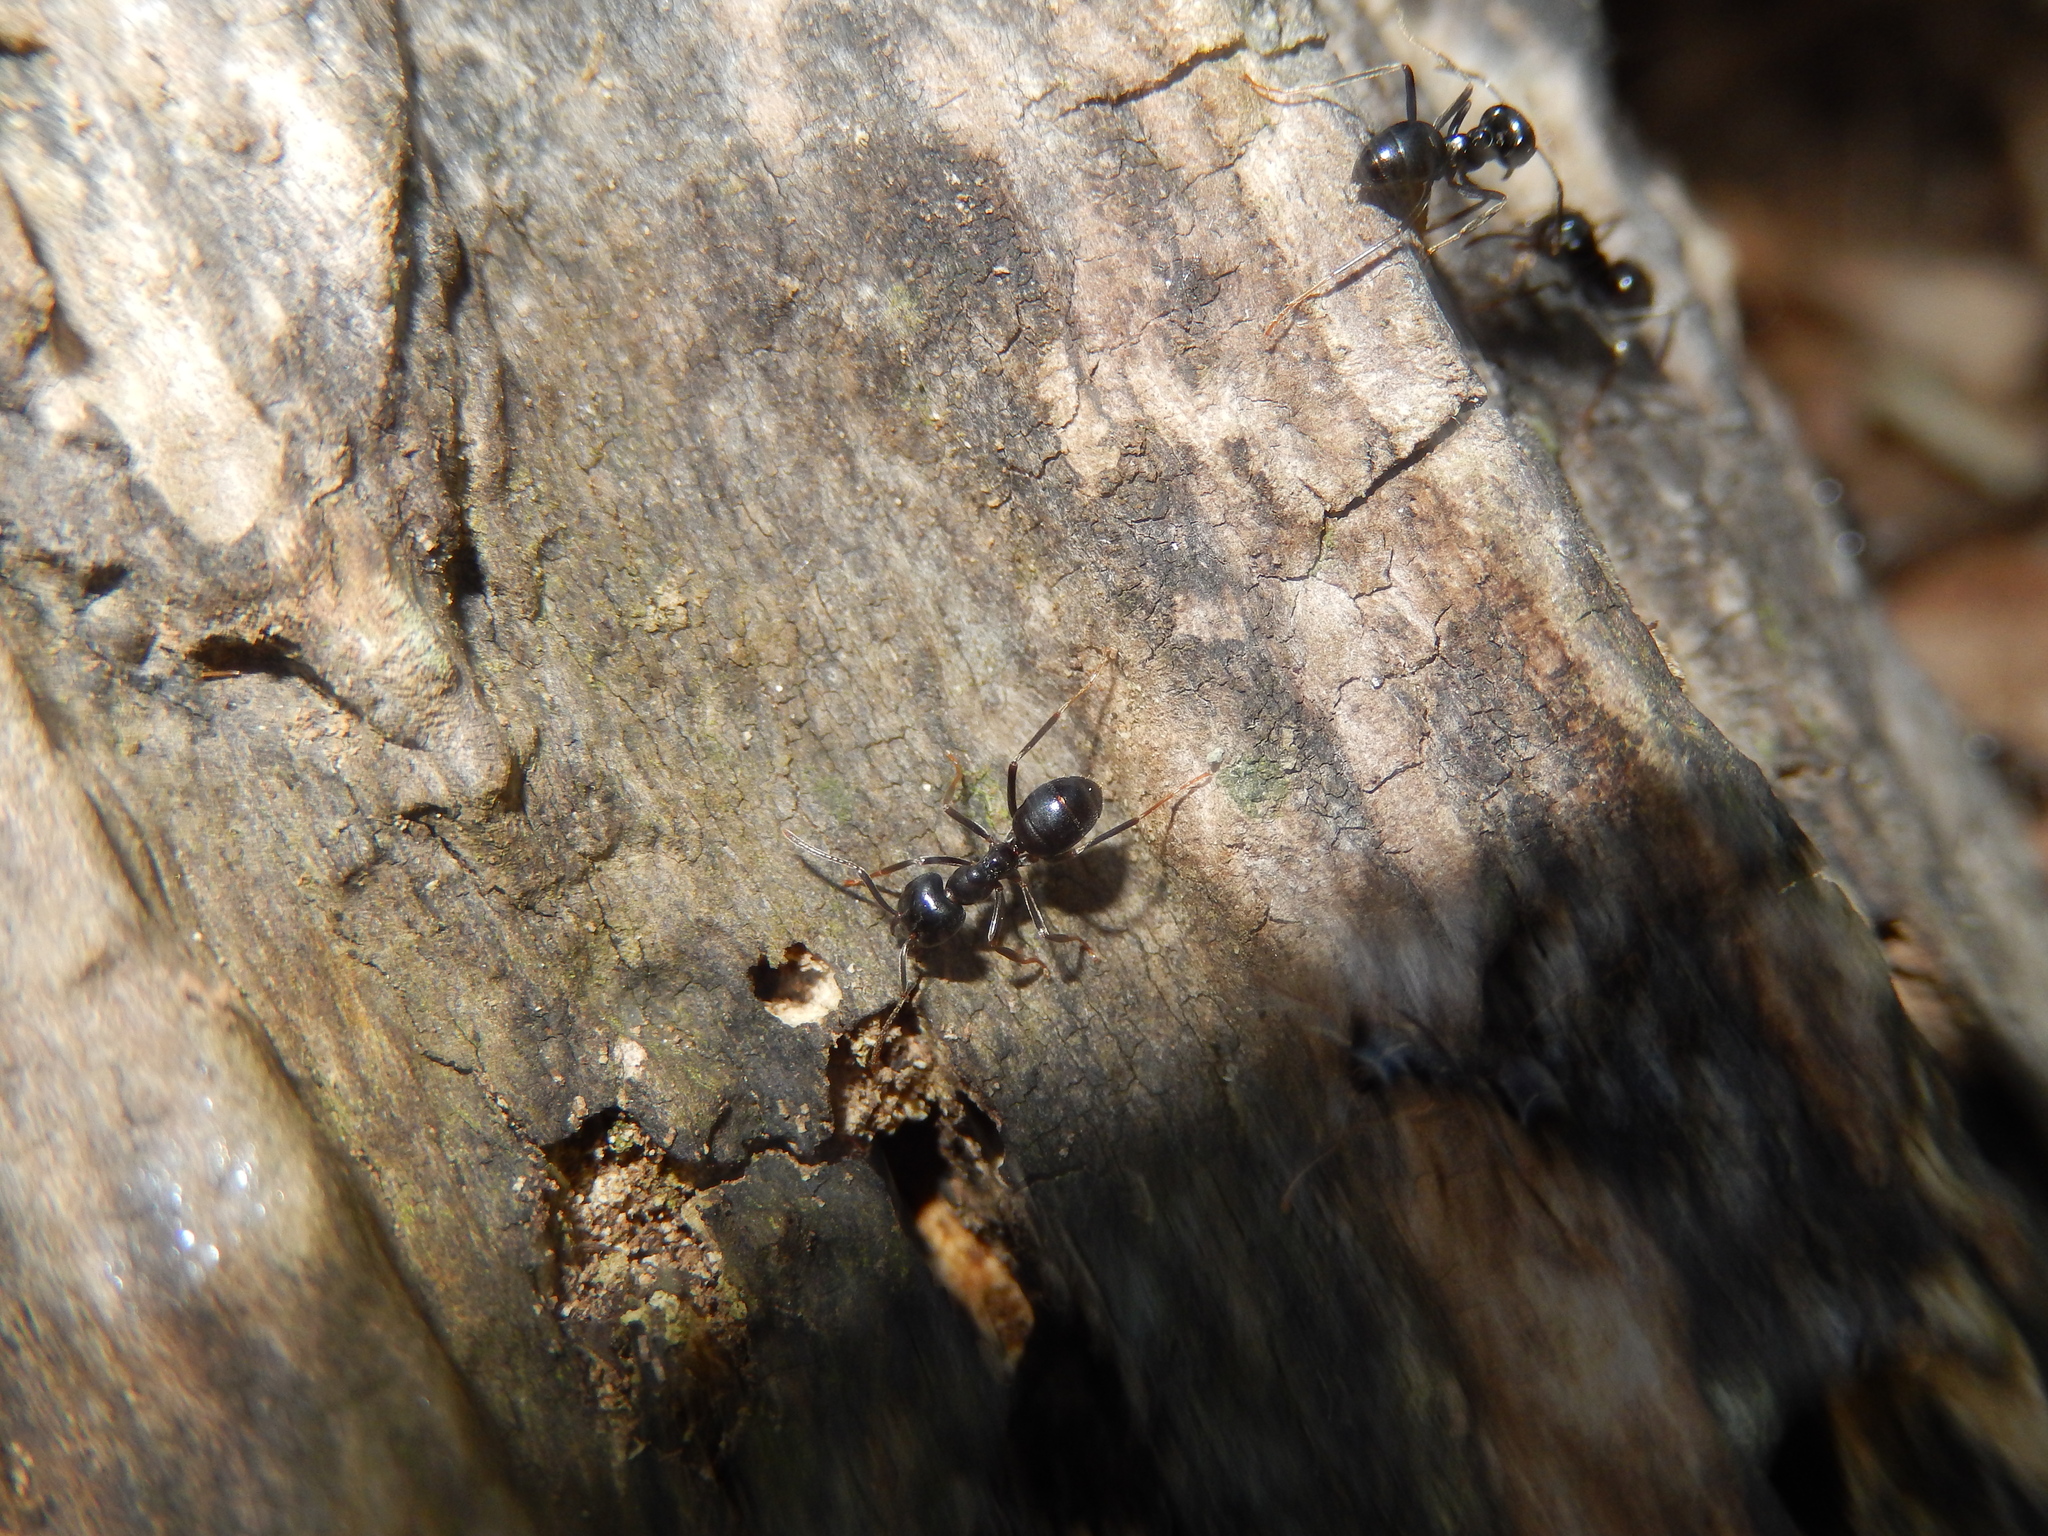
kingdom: Animalia
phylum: Arthropoda
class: Insecta
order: Hymenoptera
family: Formicidae
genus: Lasius
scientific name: Lasius fuliginosus
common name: Jet ant
